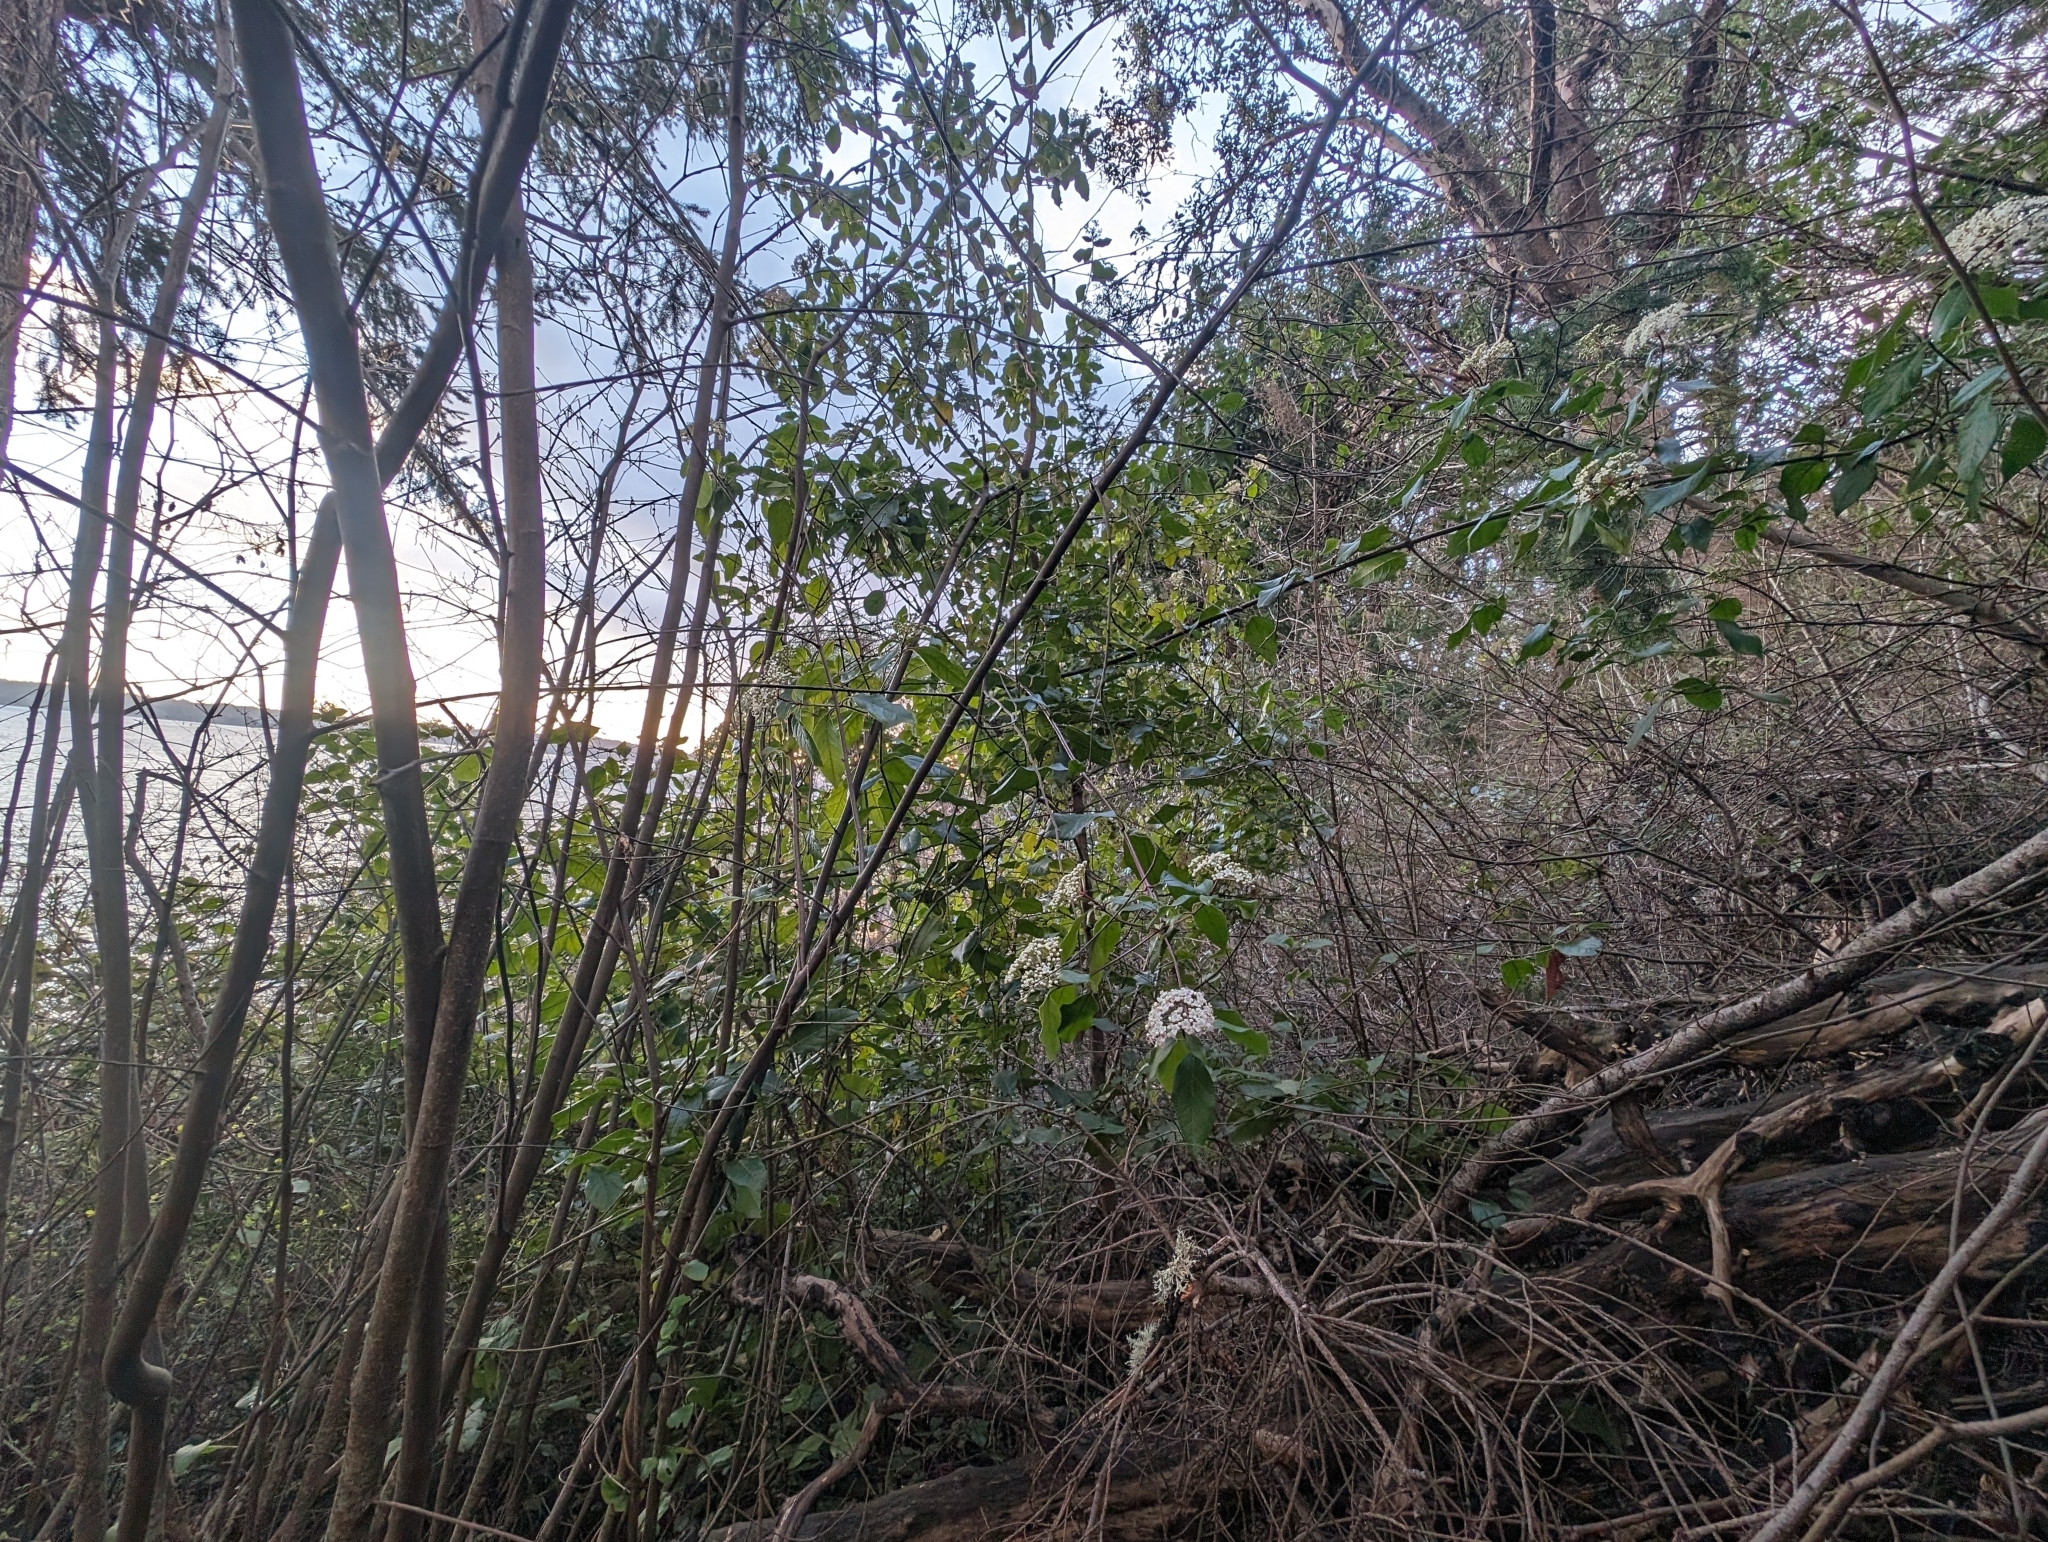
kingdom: Plantae
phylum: Tracheophyta
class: Magnoliopsida
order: Dipsacales
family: Viburnaceae
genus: Viburnum
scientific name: Viburnum tinus
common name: Laurustinus
